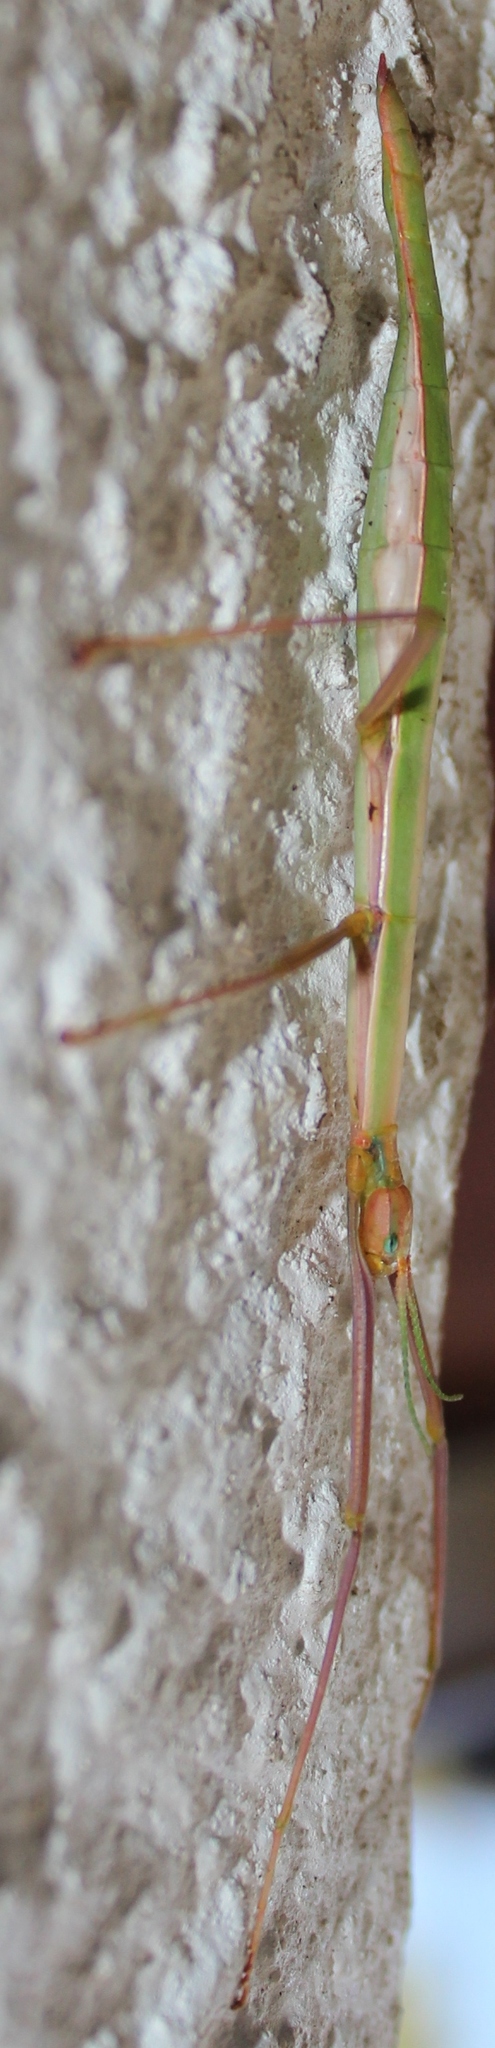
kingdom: Animalia
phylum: Arthropoda
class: Insecta
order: Phasmida
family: Bacillidae
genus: Macynia
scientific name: Macynia labiata
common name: Thunberg's stick insect
